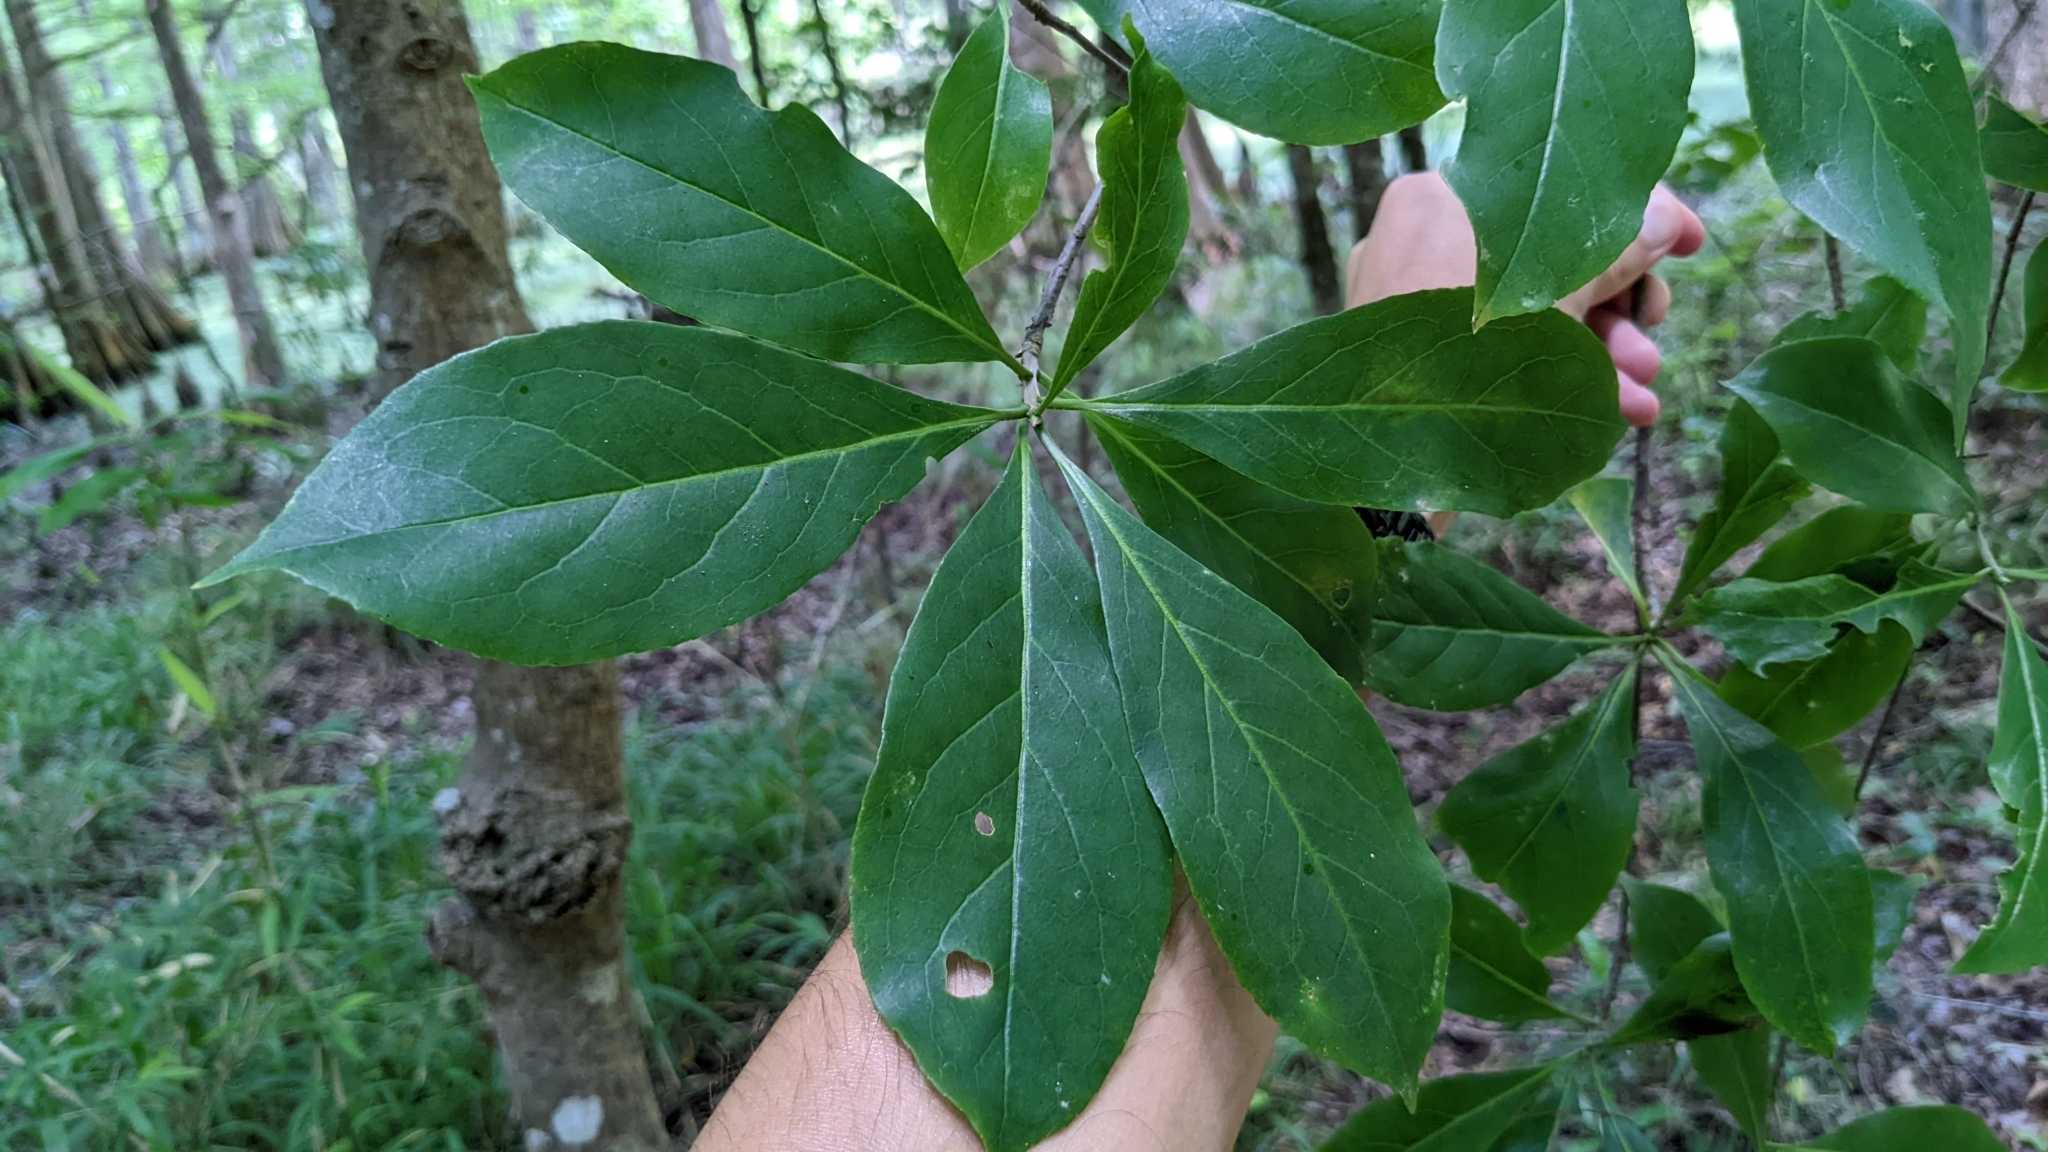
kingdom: Plantae
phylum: Tracheophyta
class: Magnoliopsida
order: Ericales
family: Symplocaceae
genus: Symplocos
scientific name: Symplocos tinctoria
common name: Horse-sugar
